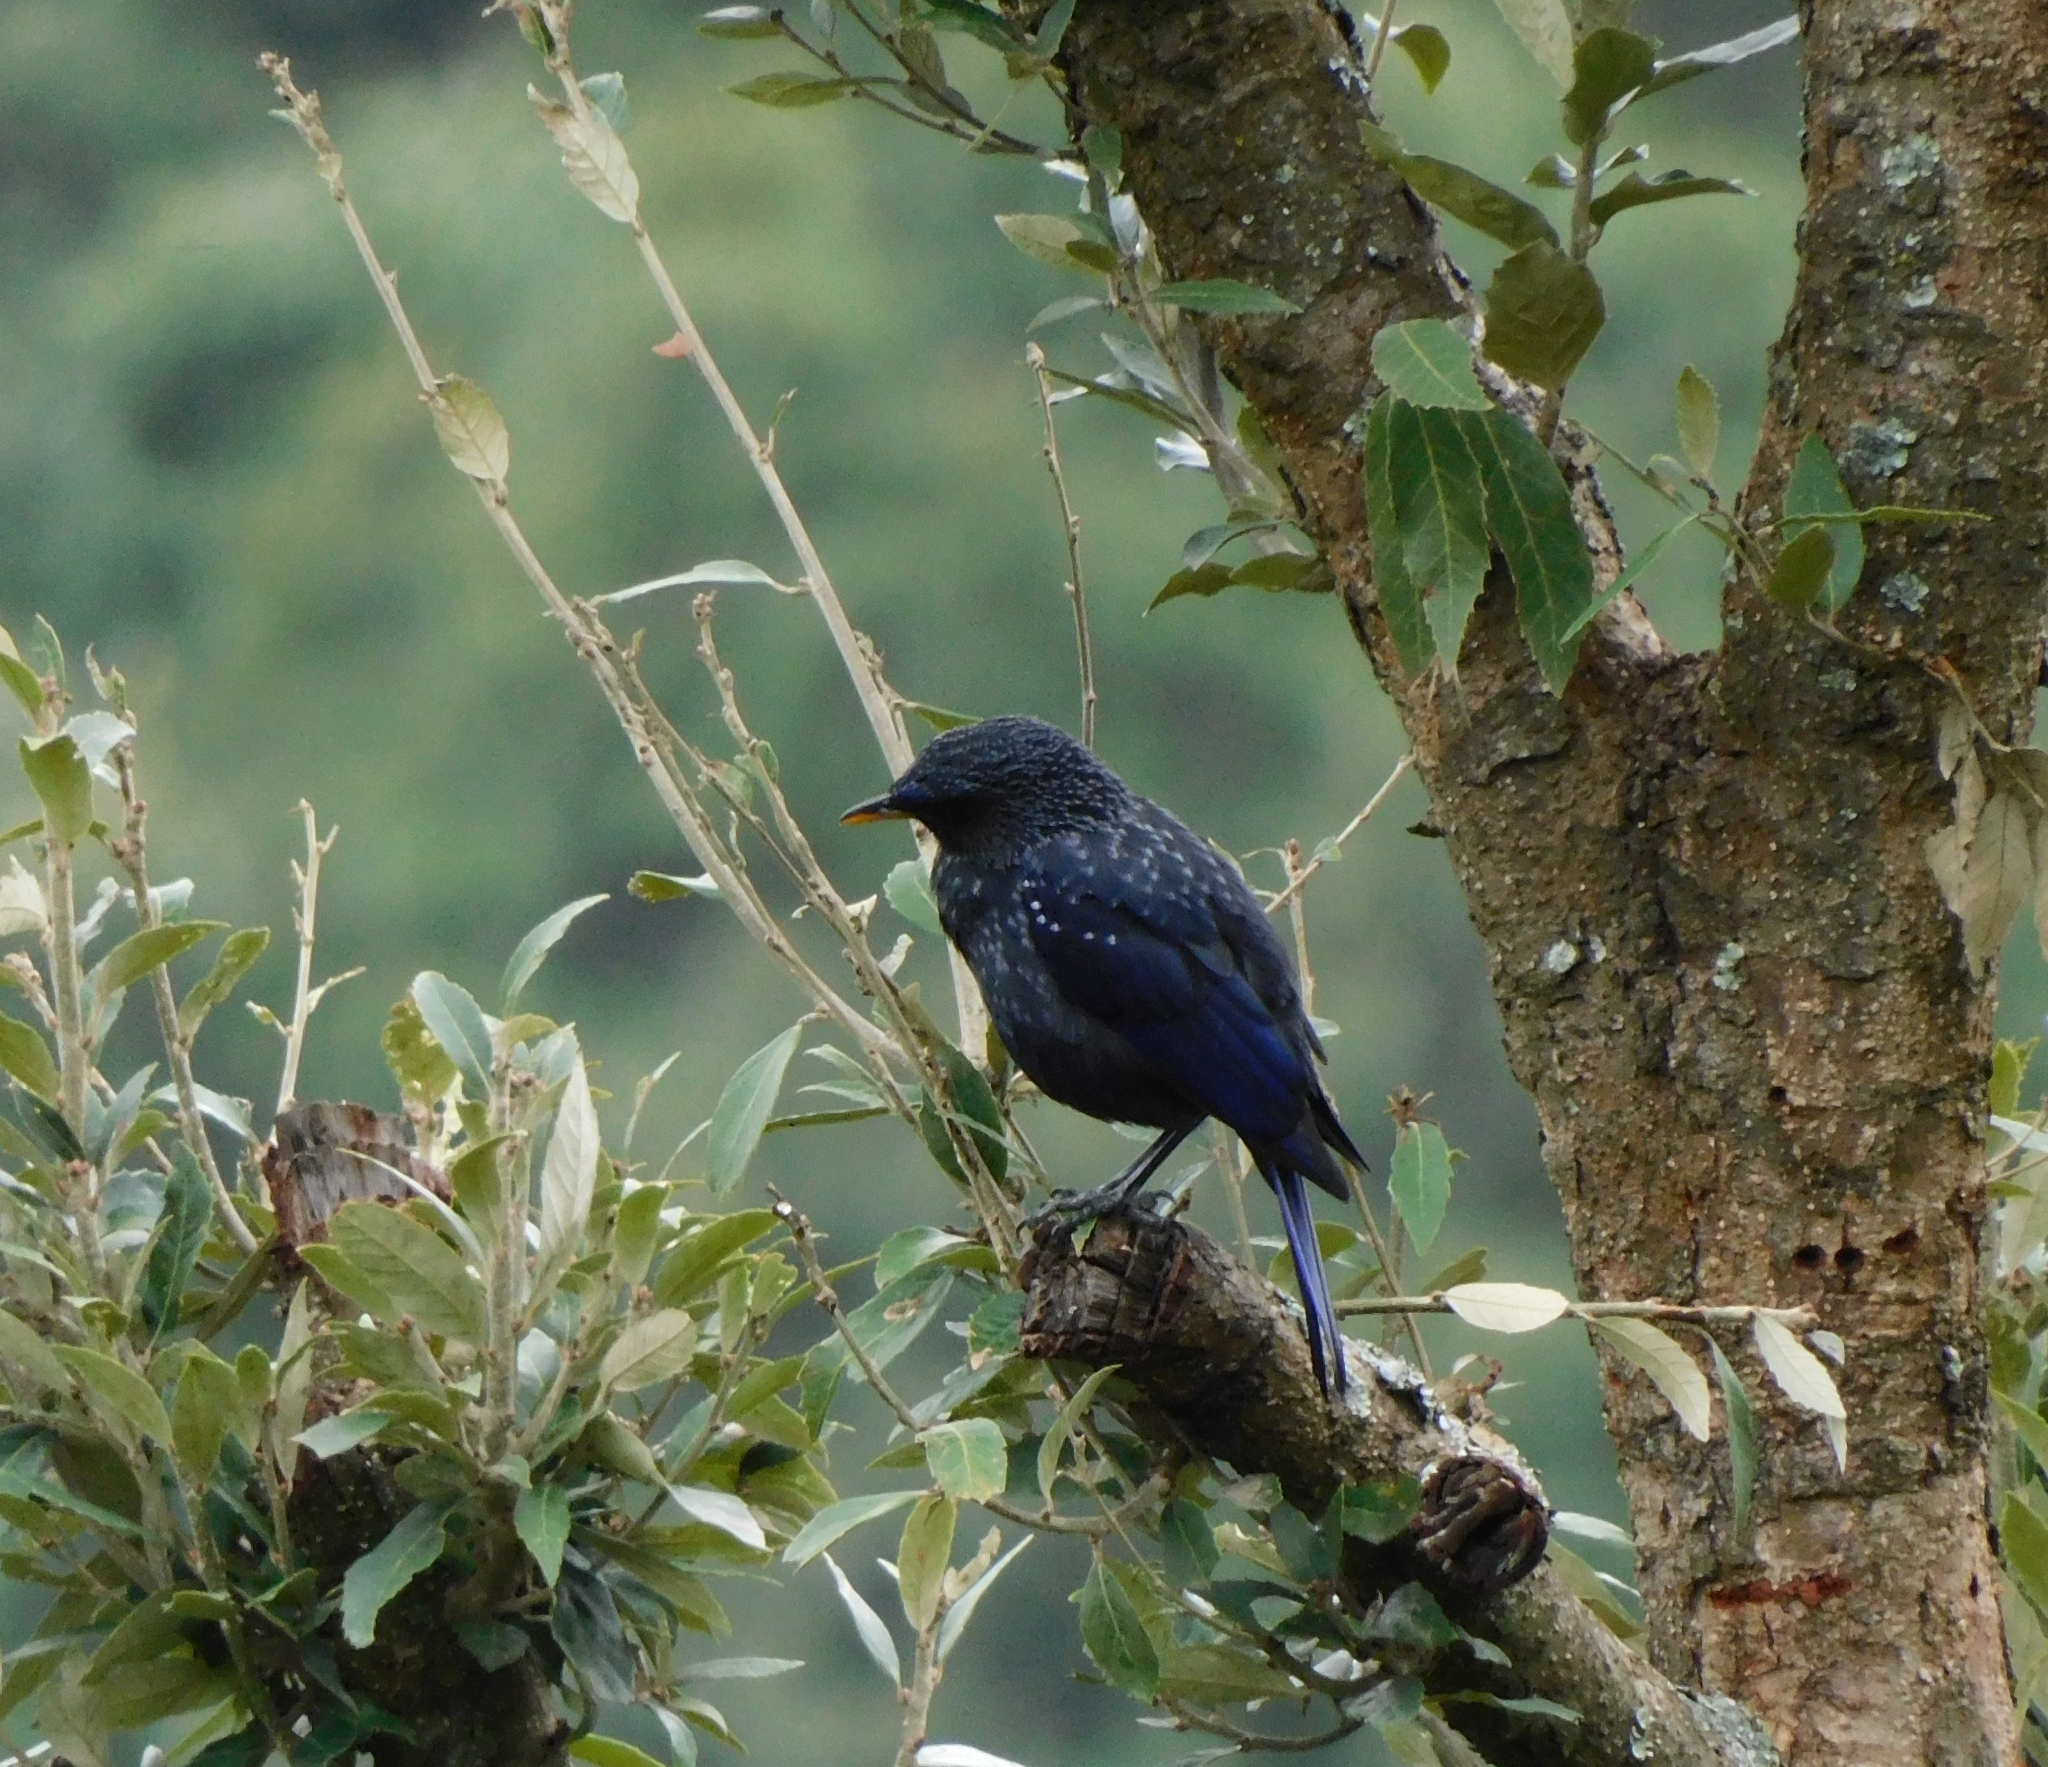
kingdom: Animalia
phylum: Chordata
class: Aves
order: Passeriformes
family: Muscicapidae
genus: Myophonus
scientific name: Myophonus caeruleus
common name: Blue whistling-thrush
